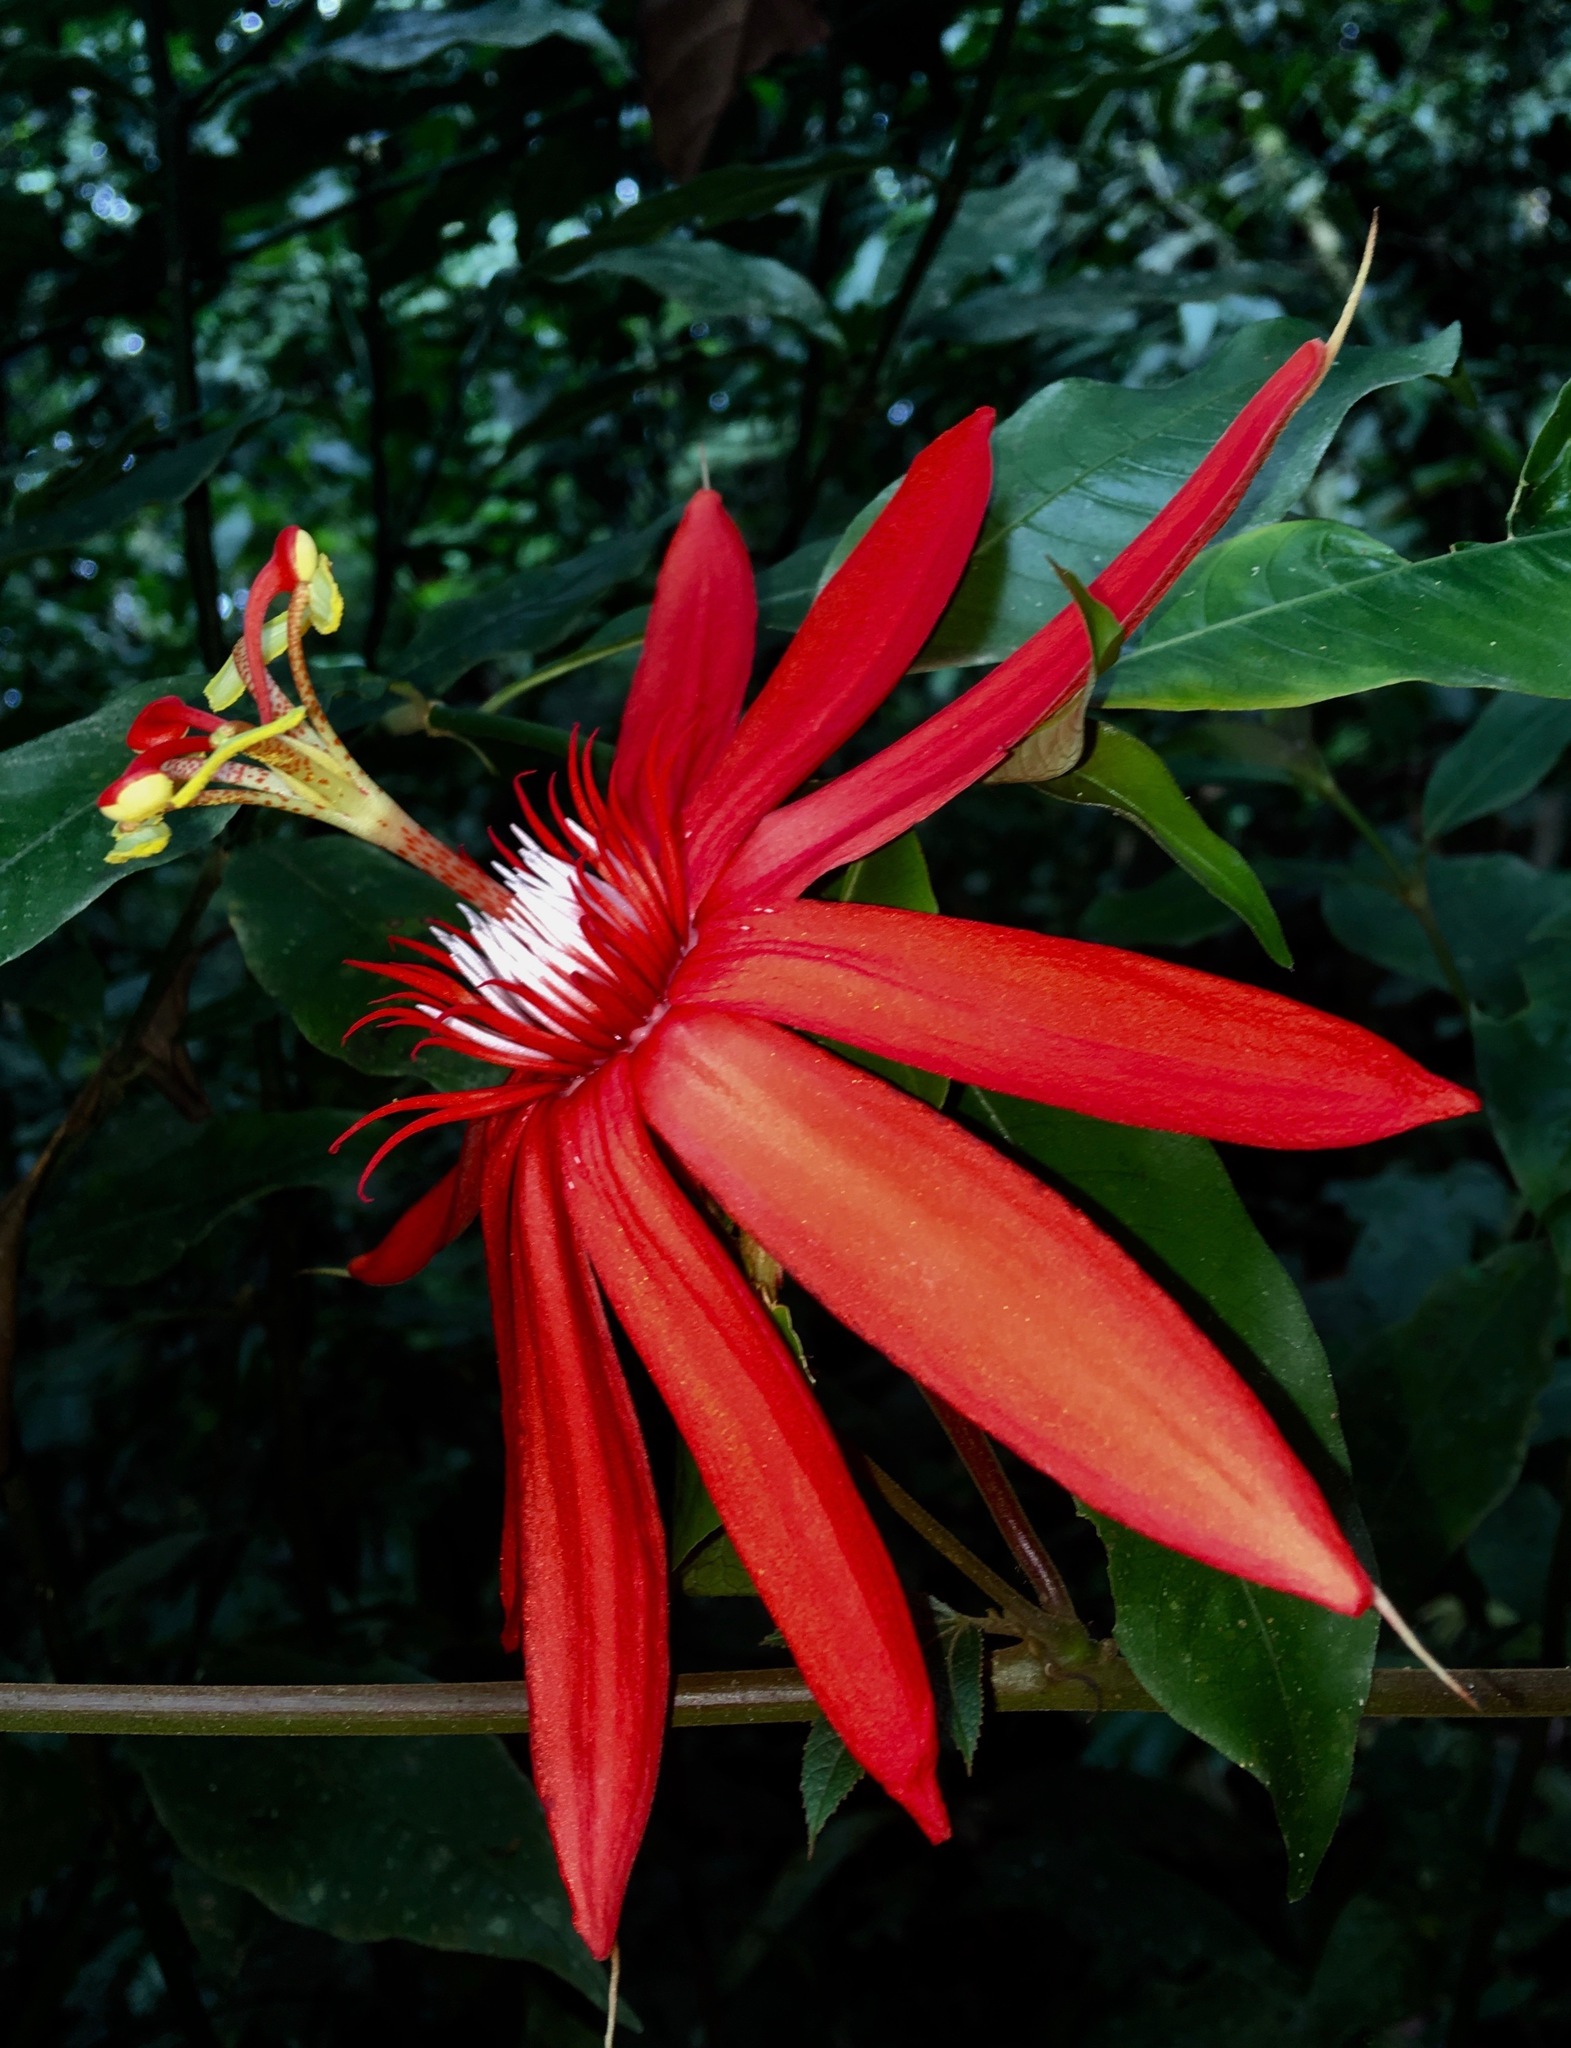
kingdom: Plantae
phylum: Tracheophyta
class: Magnoliopsida
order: Malpighiales
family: Passifloraceae
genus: Passiflora
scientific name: Passiflora vitifolia
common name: Perfumed passionflower
